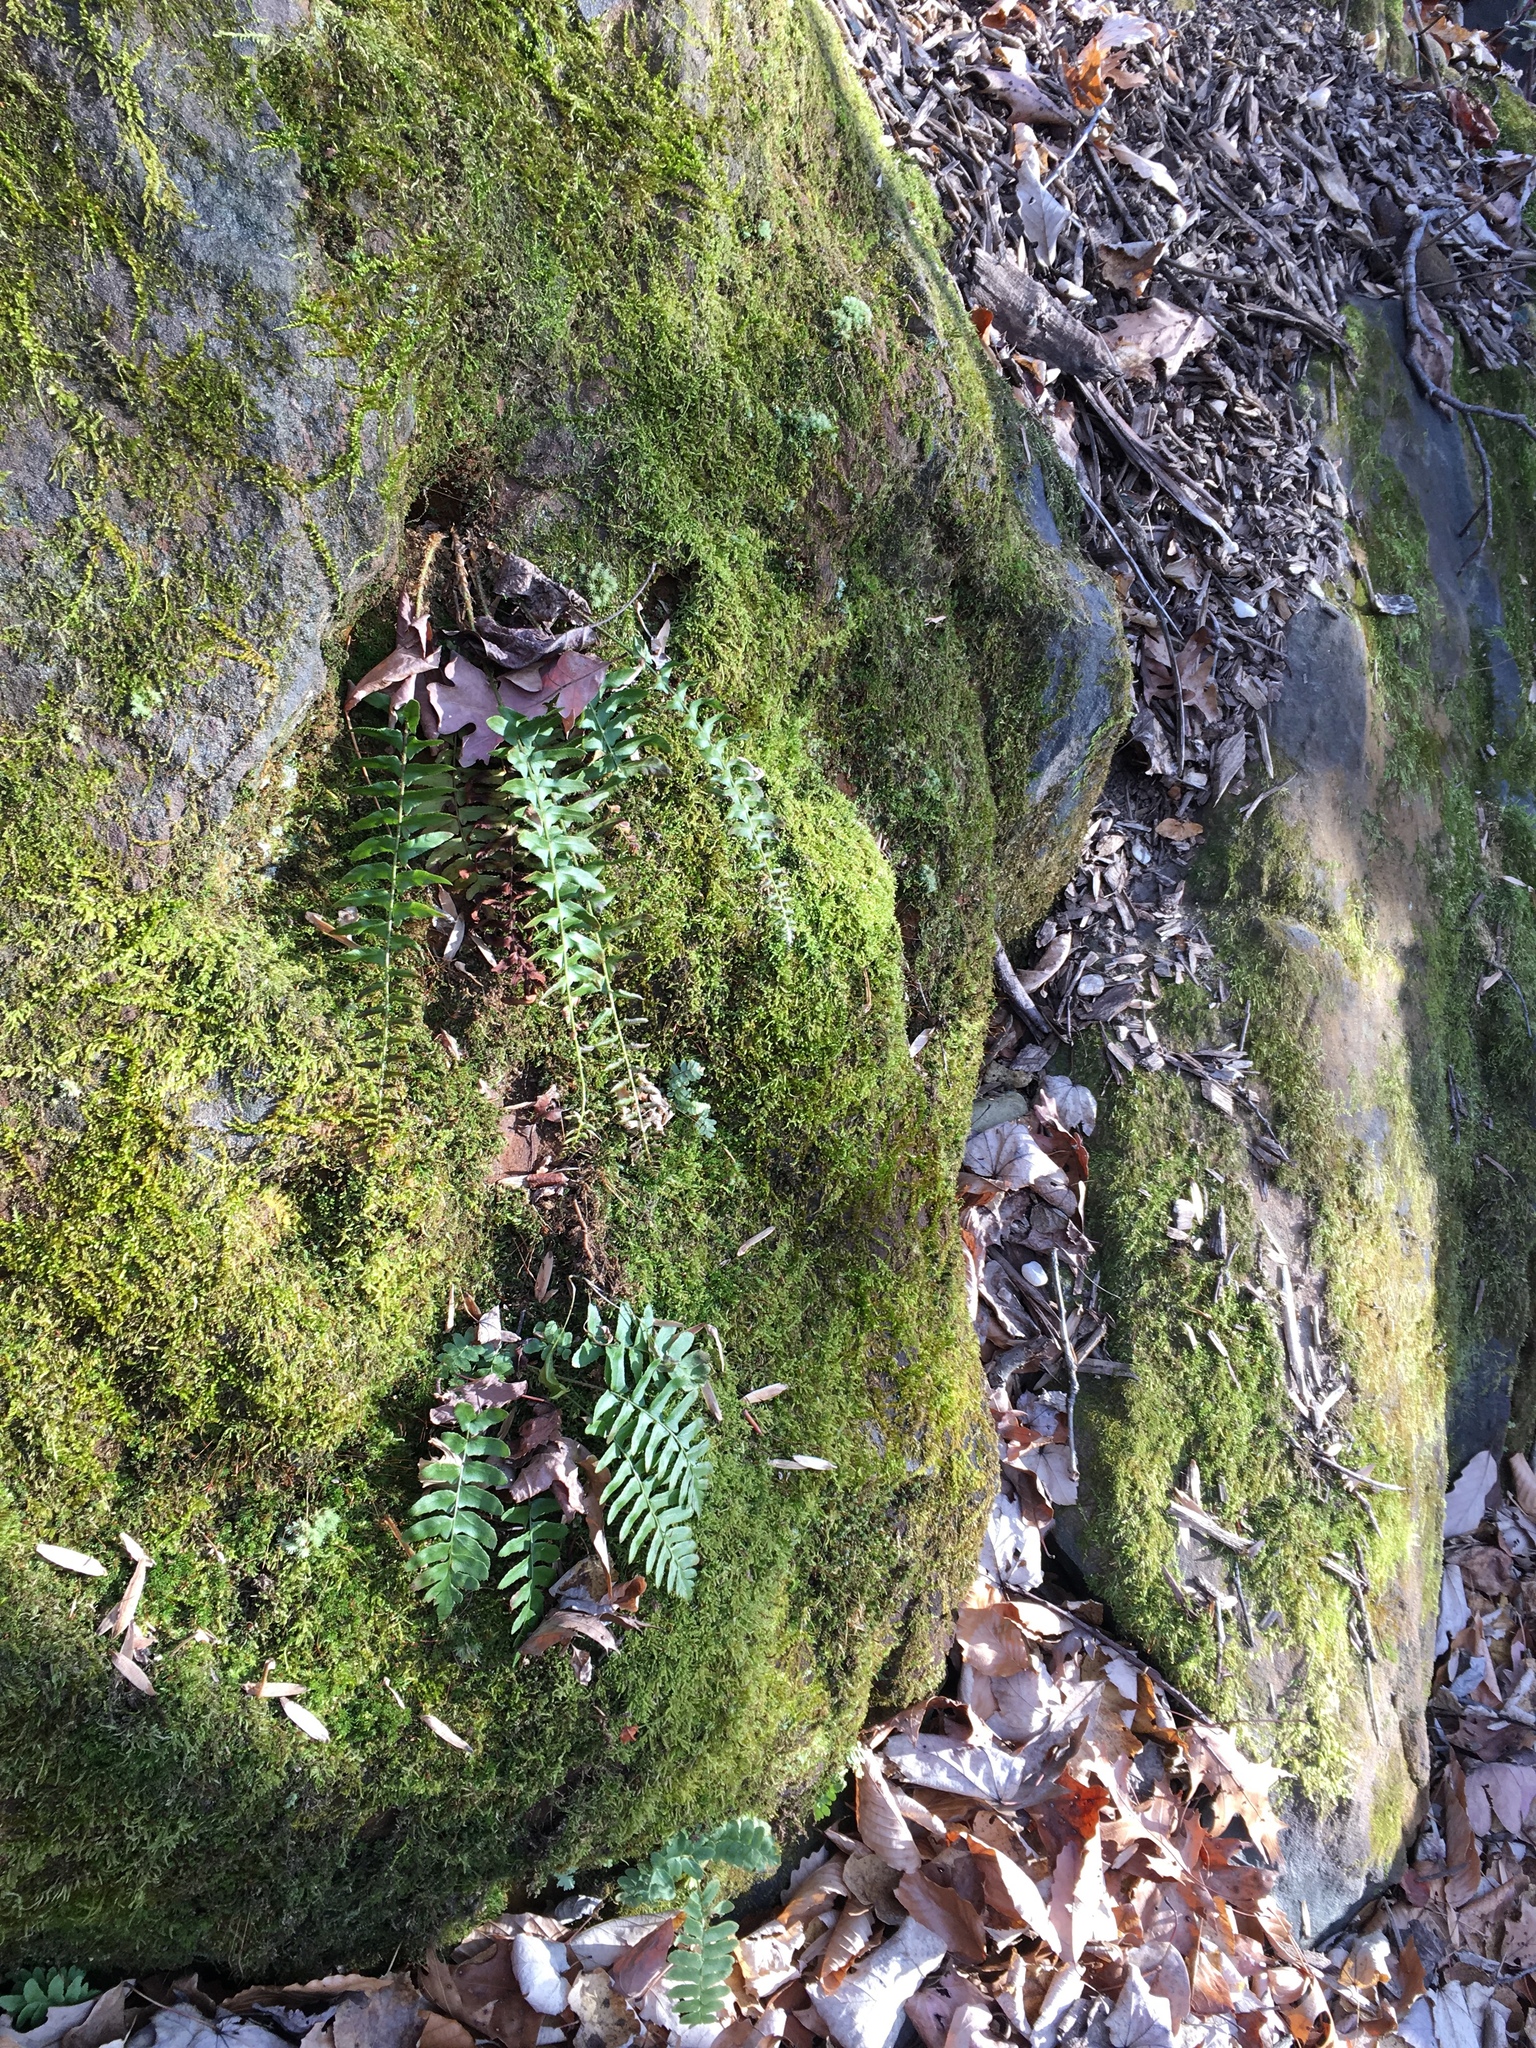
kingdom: Plantae
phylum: Tracheophyta
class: Polypodiopsida
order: Polypodiales
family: Dryopteridaceae
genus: Polystichum
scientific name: Polystichum acrostichoides
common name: Christmas fern
